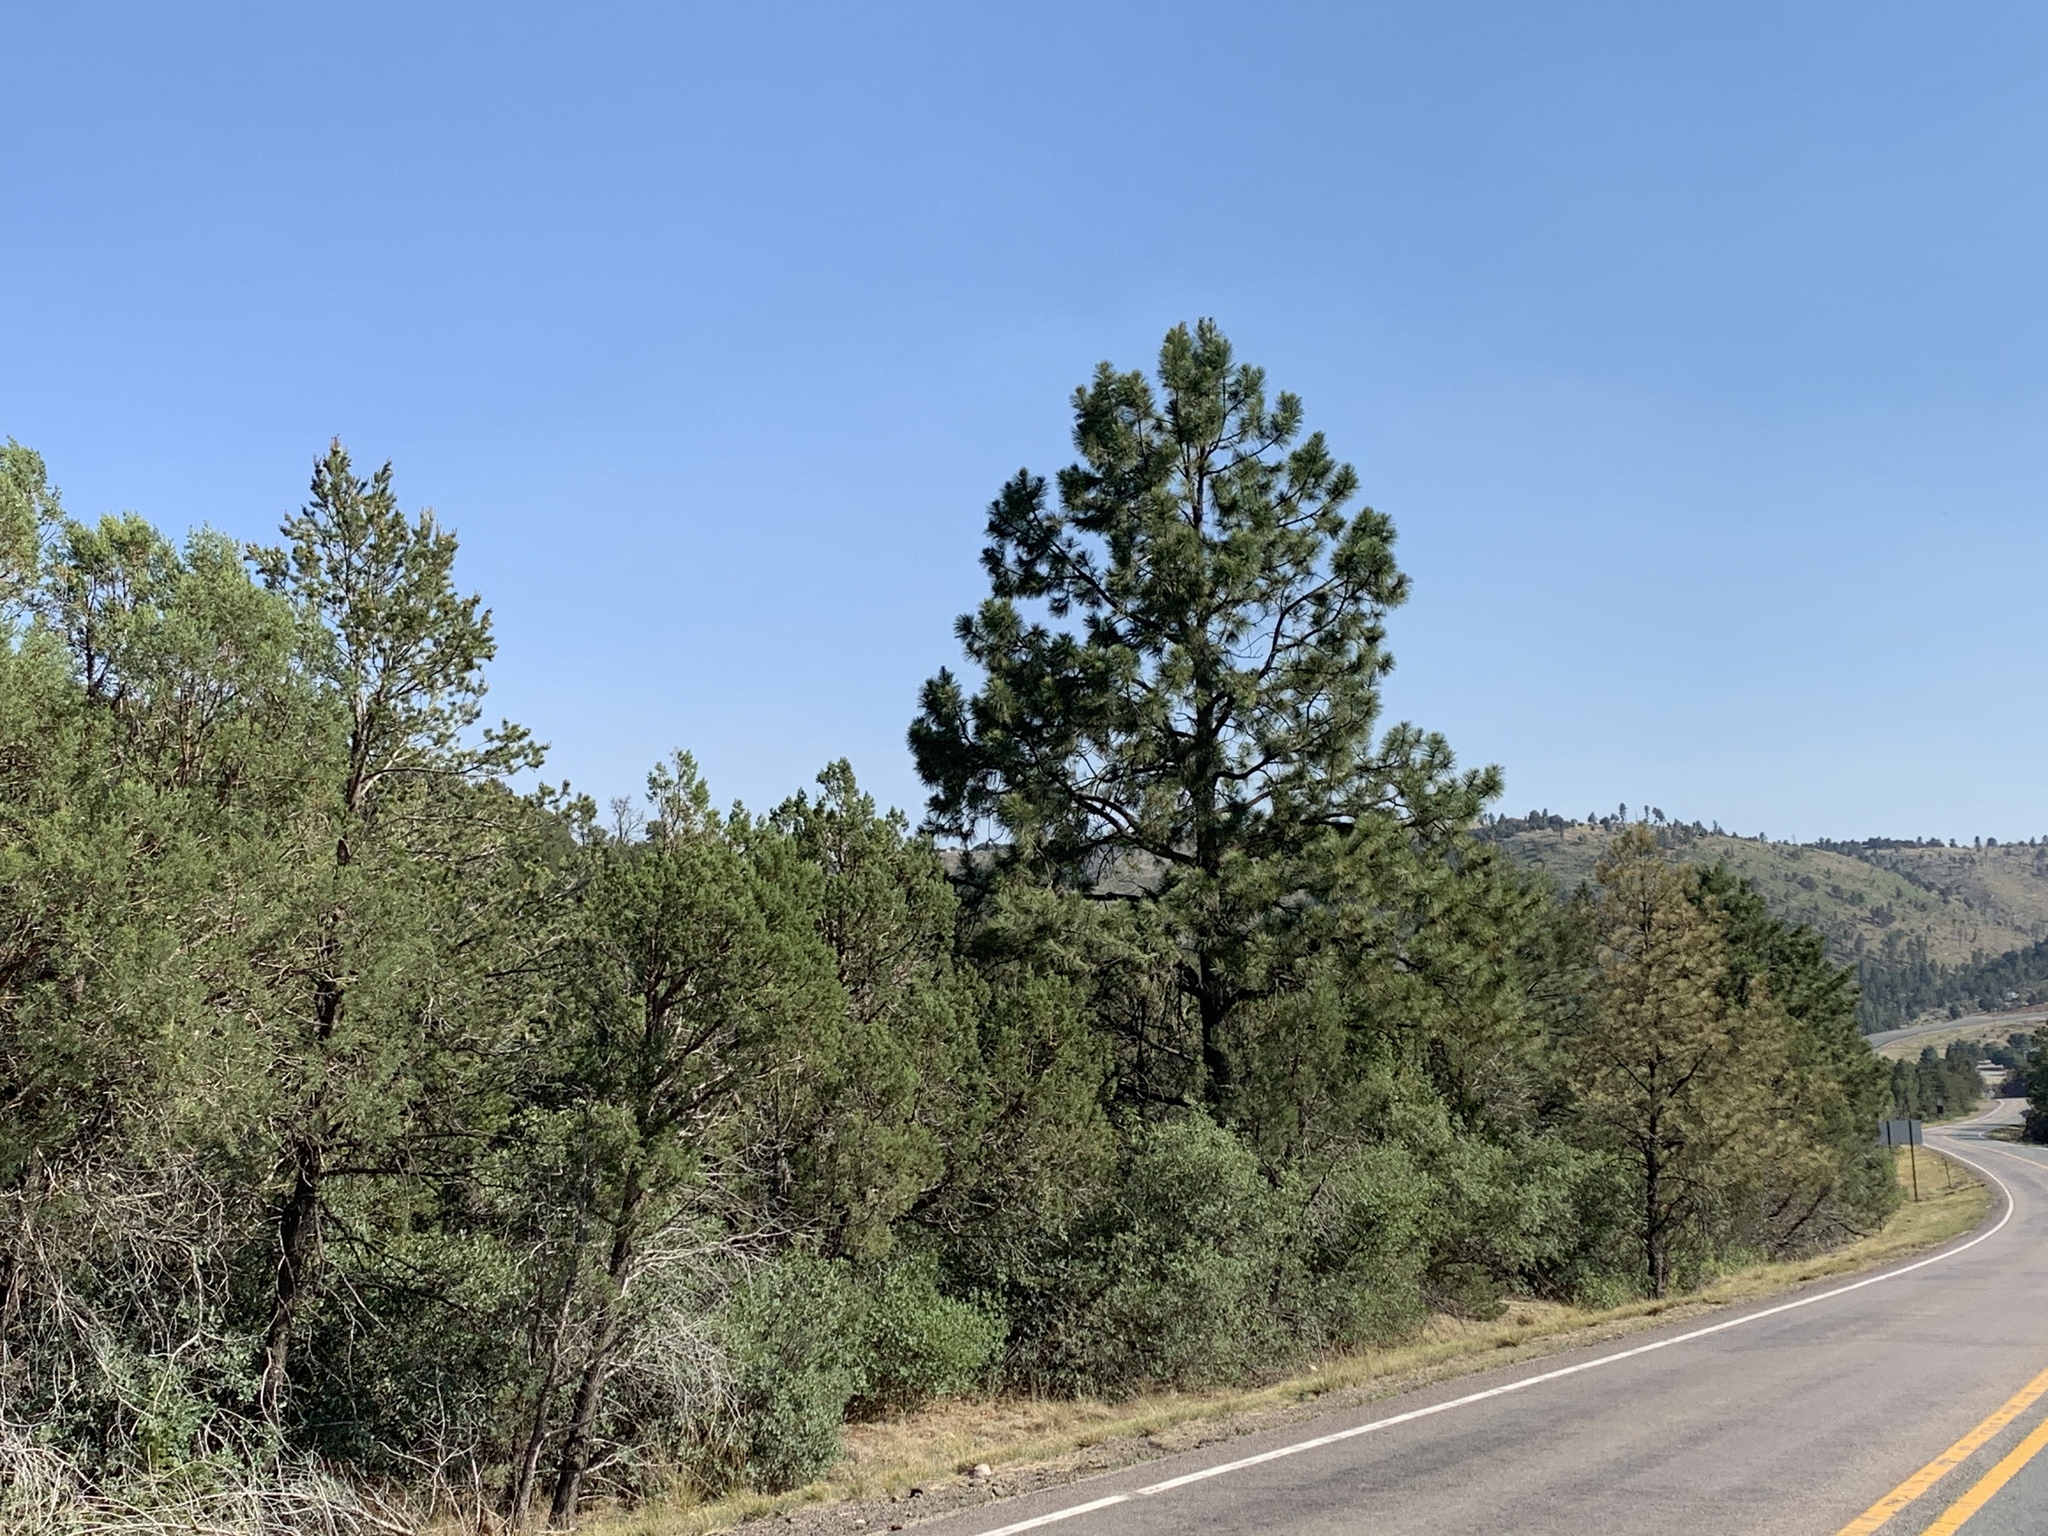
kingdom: Plantae
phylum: Tracheophyta
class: Pinopsida
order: Pinales
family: Pinaceae
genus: Pinus
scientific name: Pinus ponderosa
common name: Western yellow-pine
